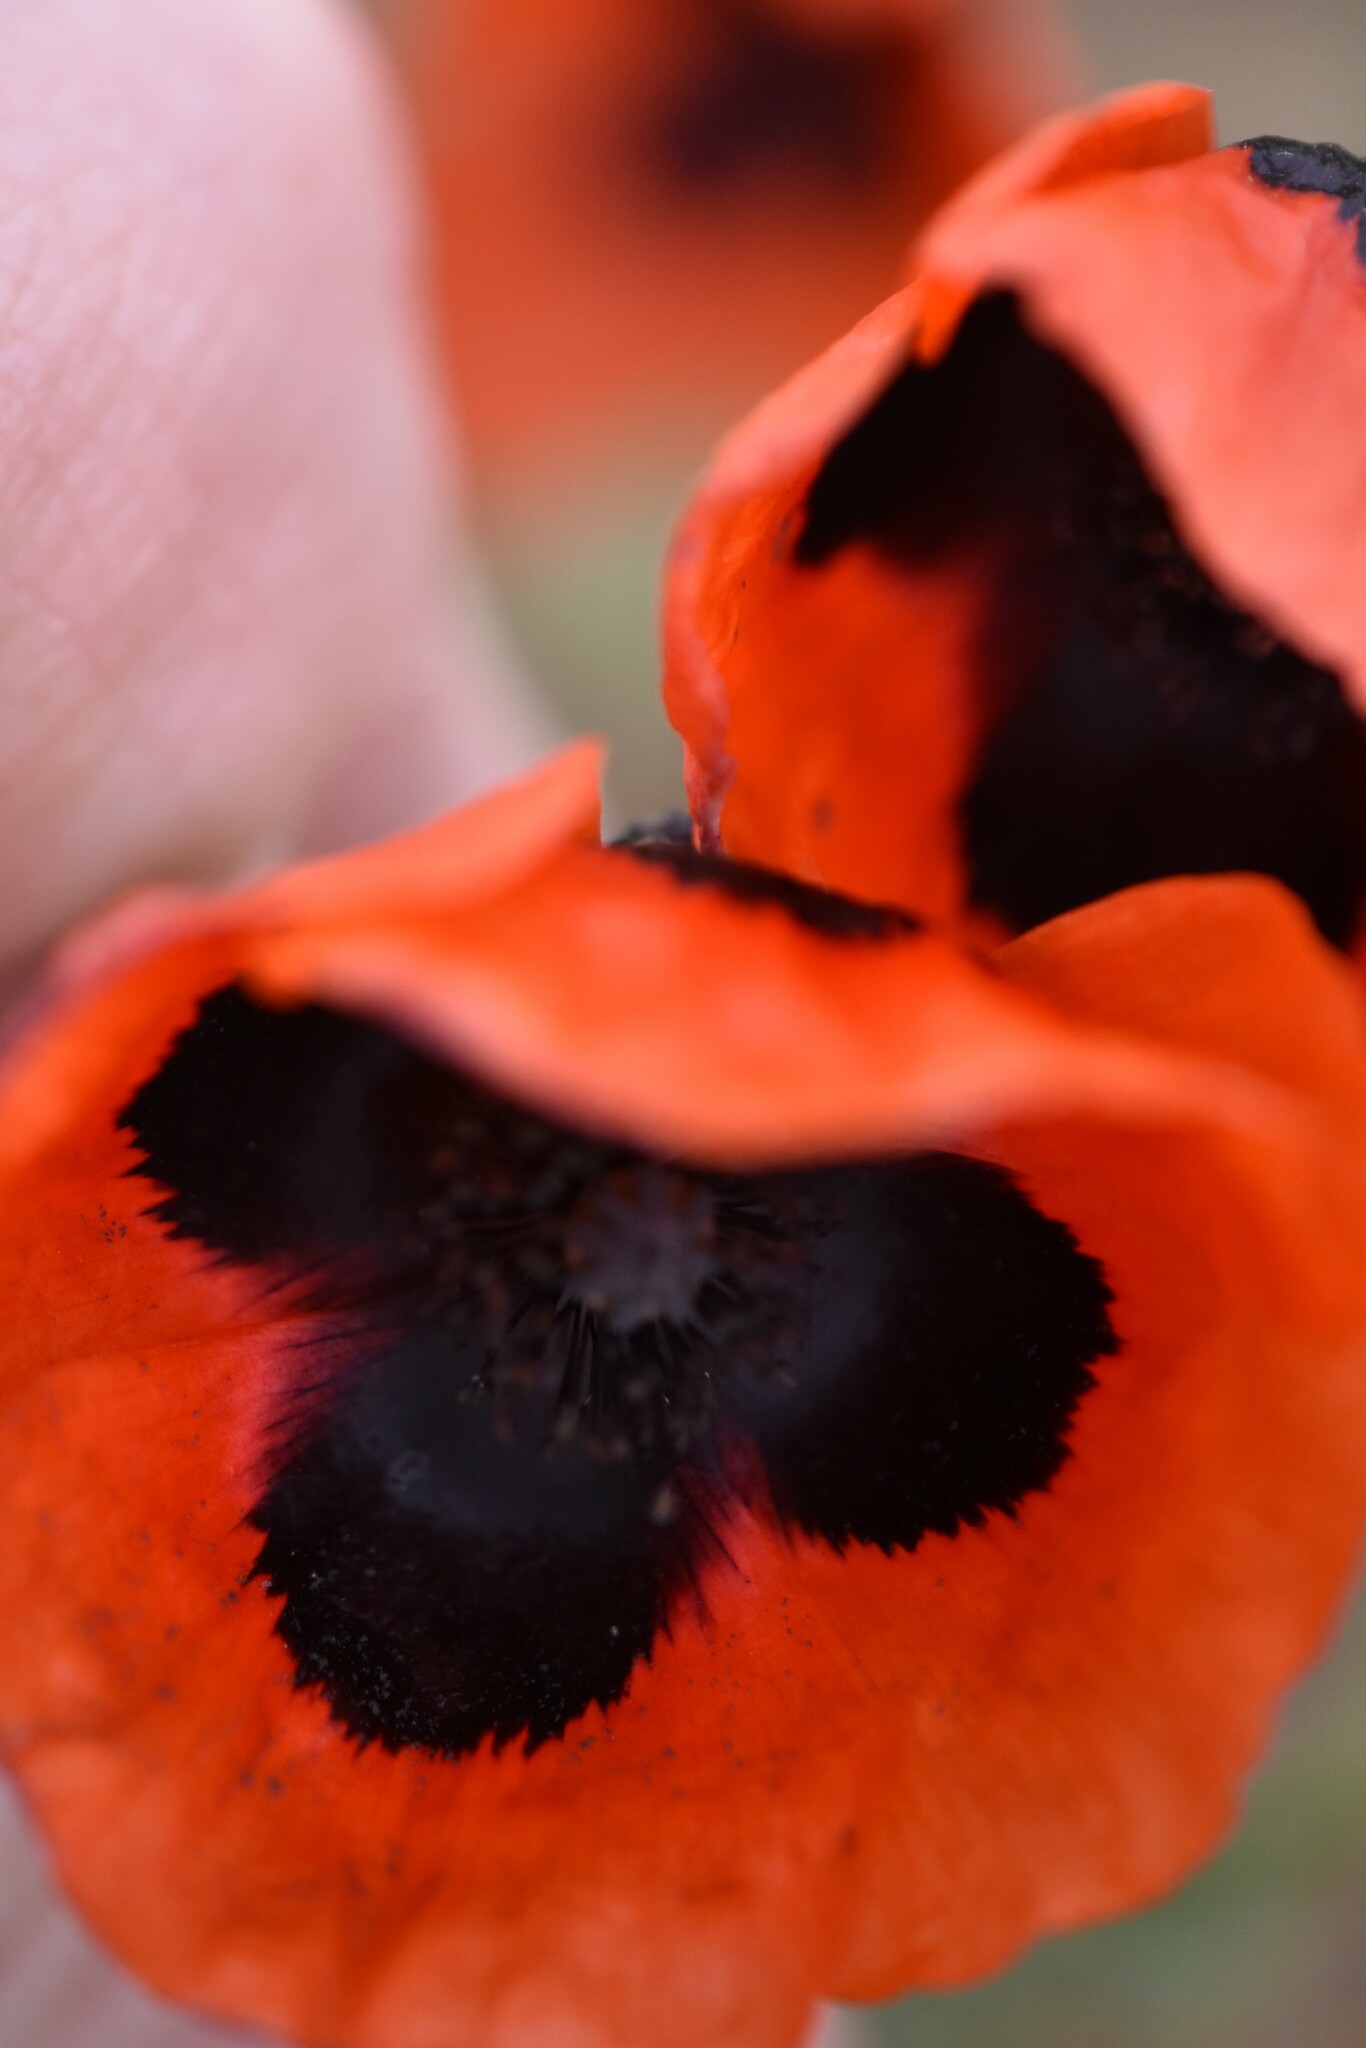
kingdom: Plantae
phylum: Tracheophyta
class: Magnoliopsida
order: Ranunculales
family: Papaveraceae
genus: Papaver
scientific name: Papaver arenarium
